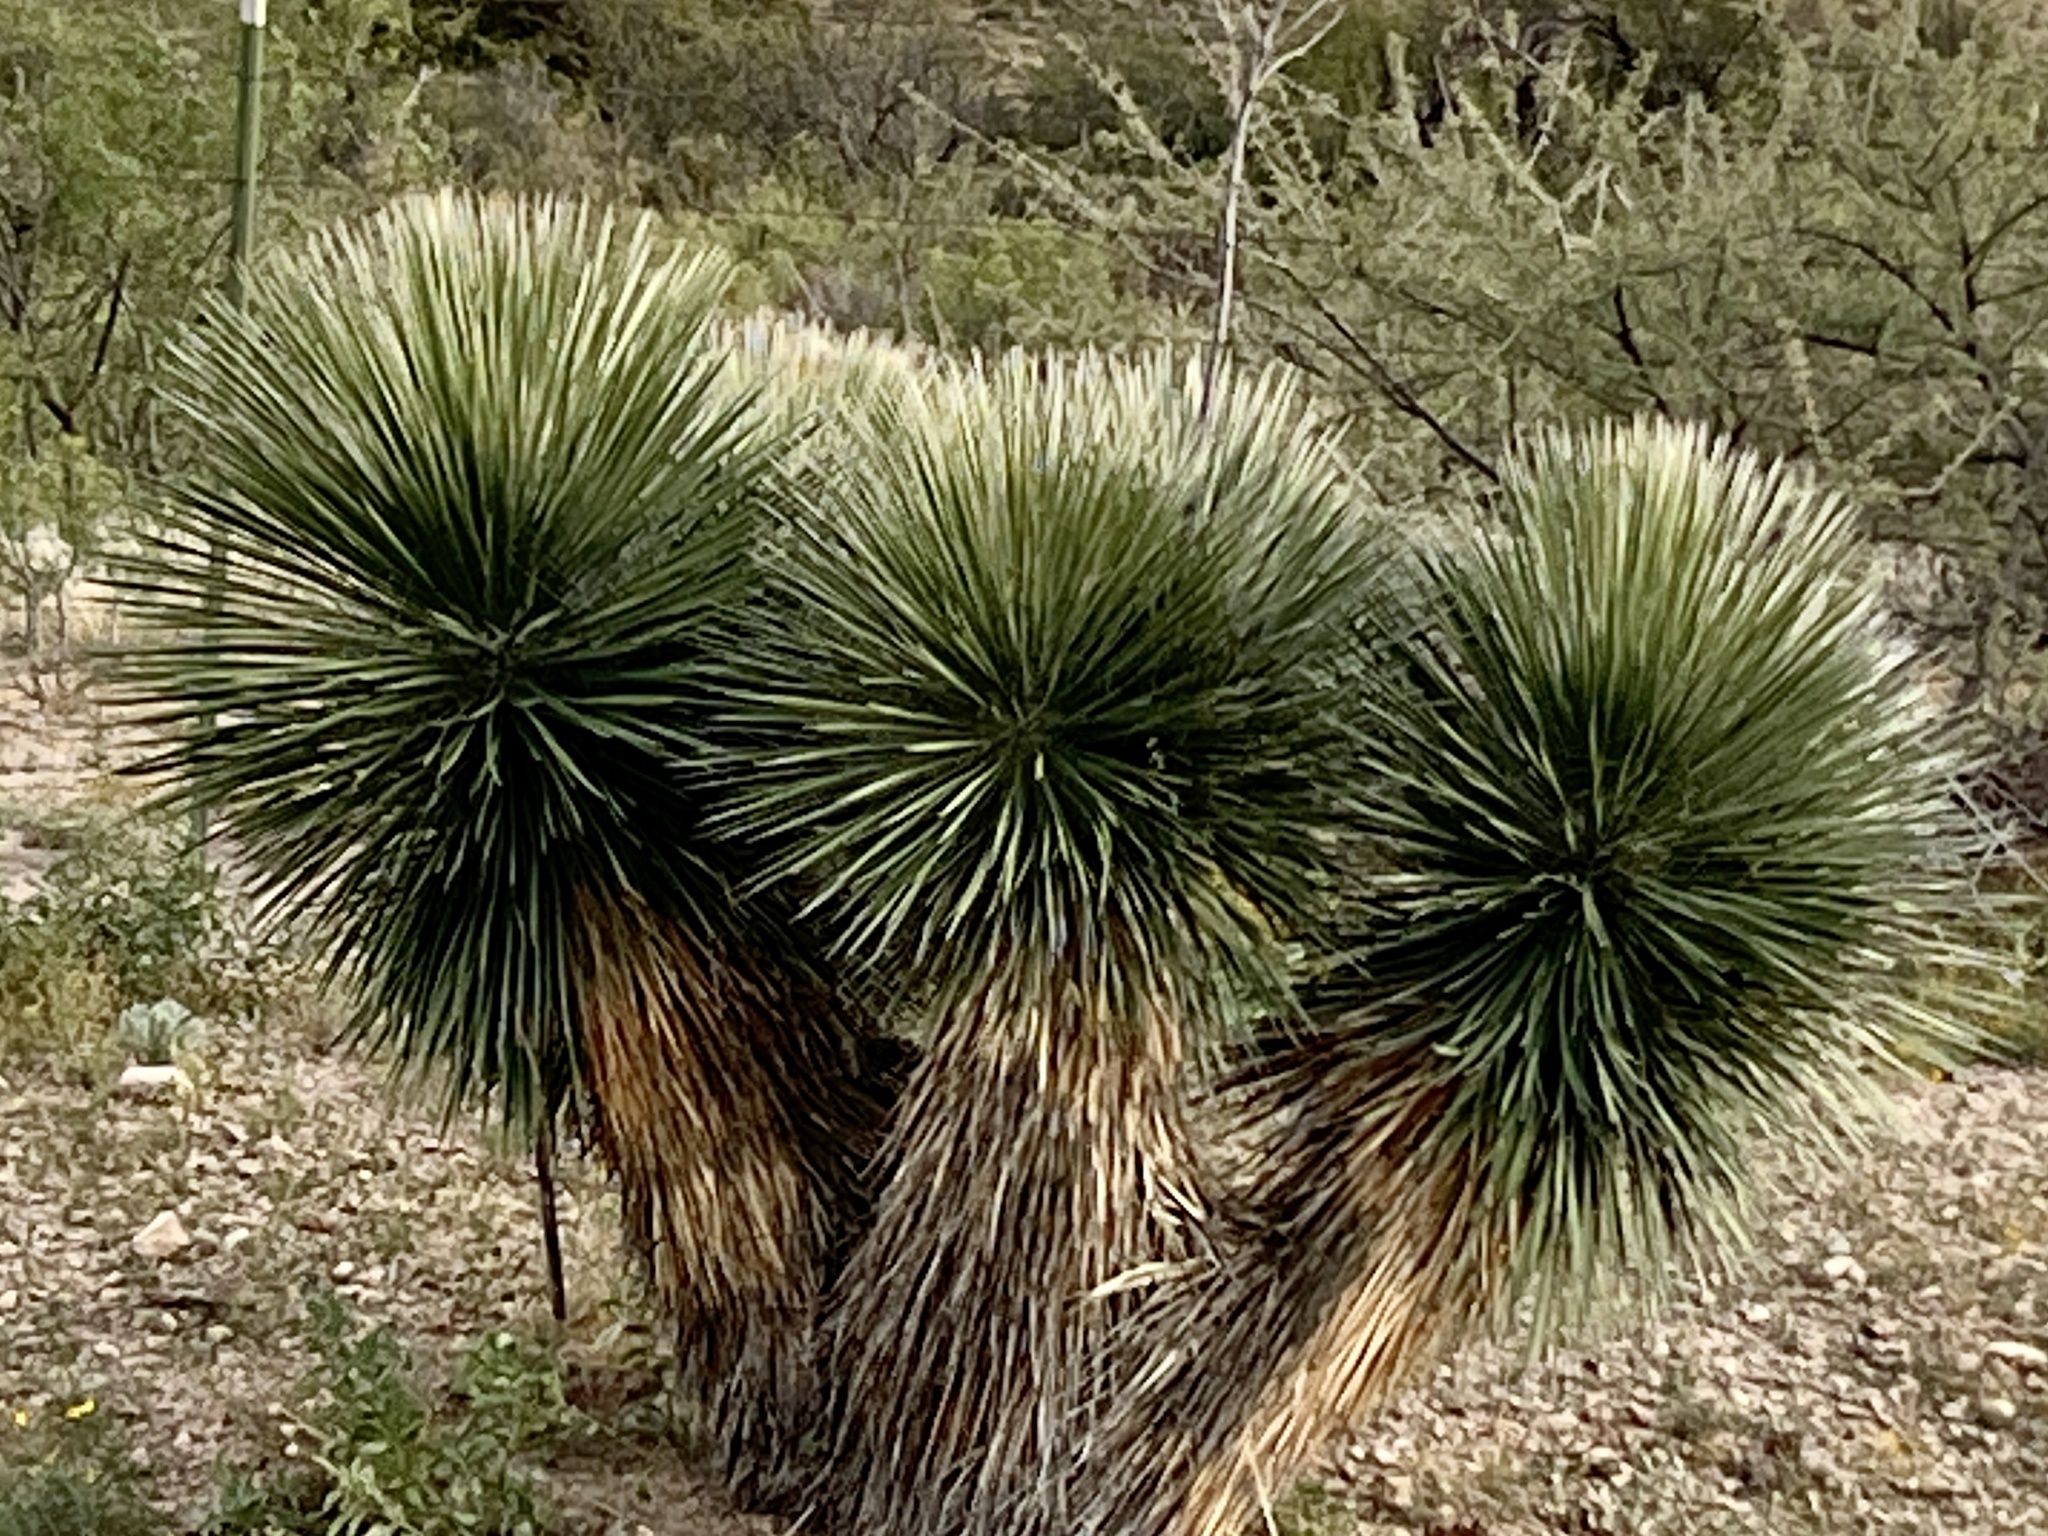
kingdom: Plantae
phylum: Tracheophyta
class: Liliopsida
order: Asparagales
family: Asparagaceae
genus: Yucca
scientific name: Yucca elata
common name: Palmella
